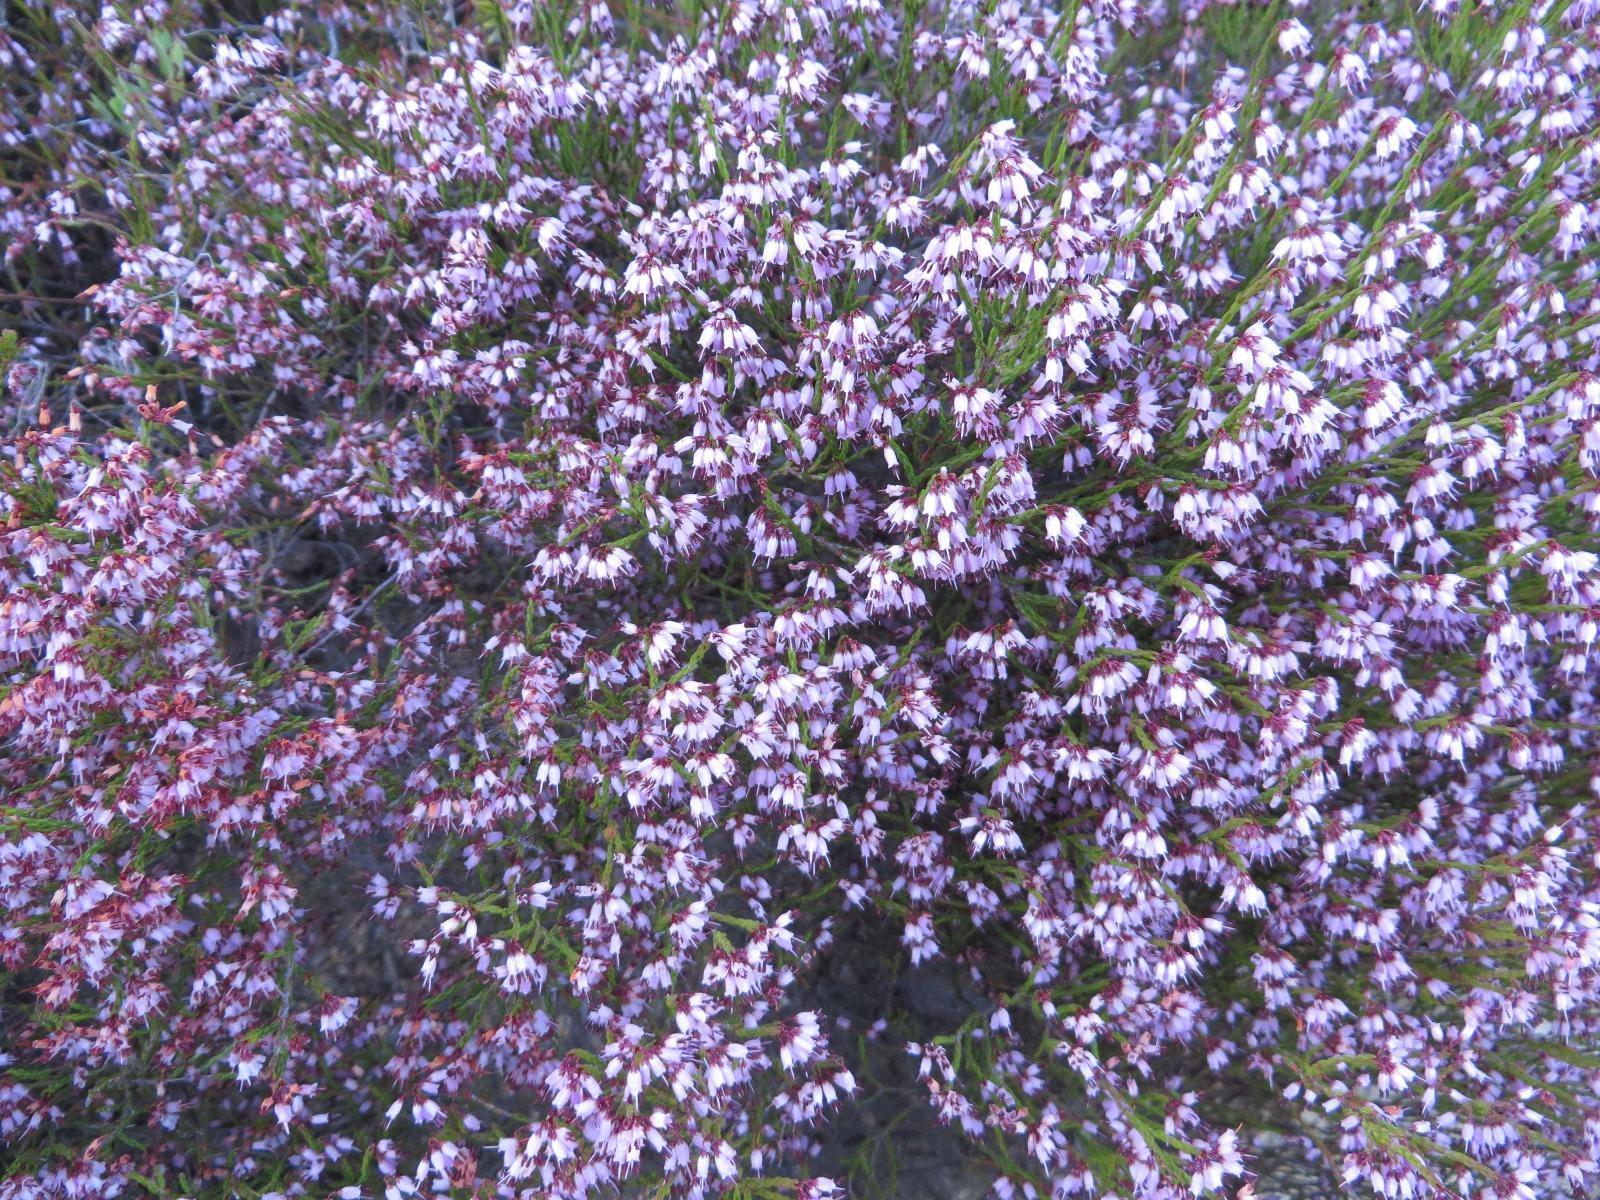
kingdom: Plantae
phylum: Tracheophyta
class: Magnoliopsida
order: Ericales
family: Ericaceae
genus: Erica
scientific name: Erica equisetifolia
